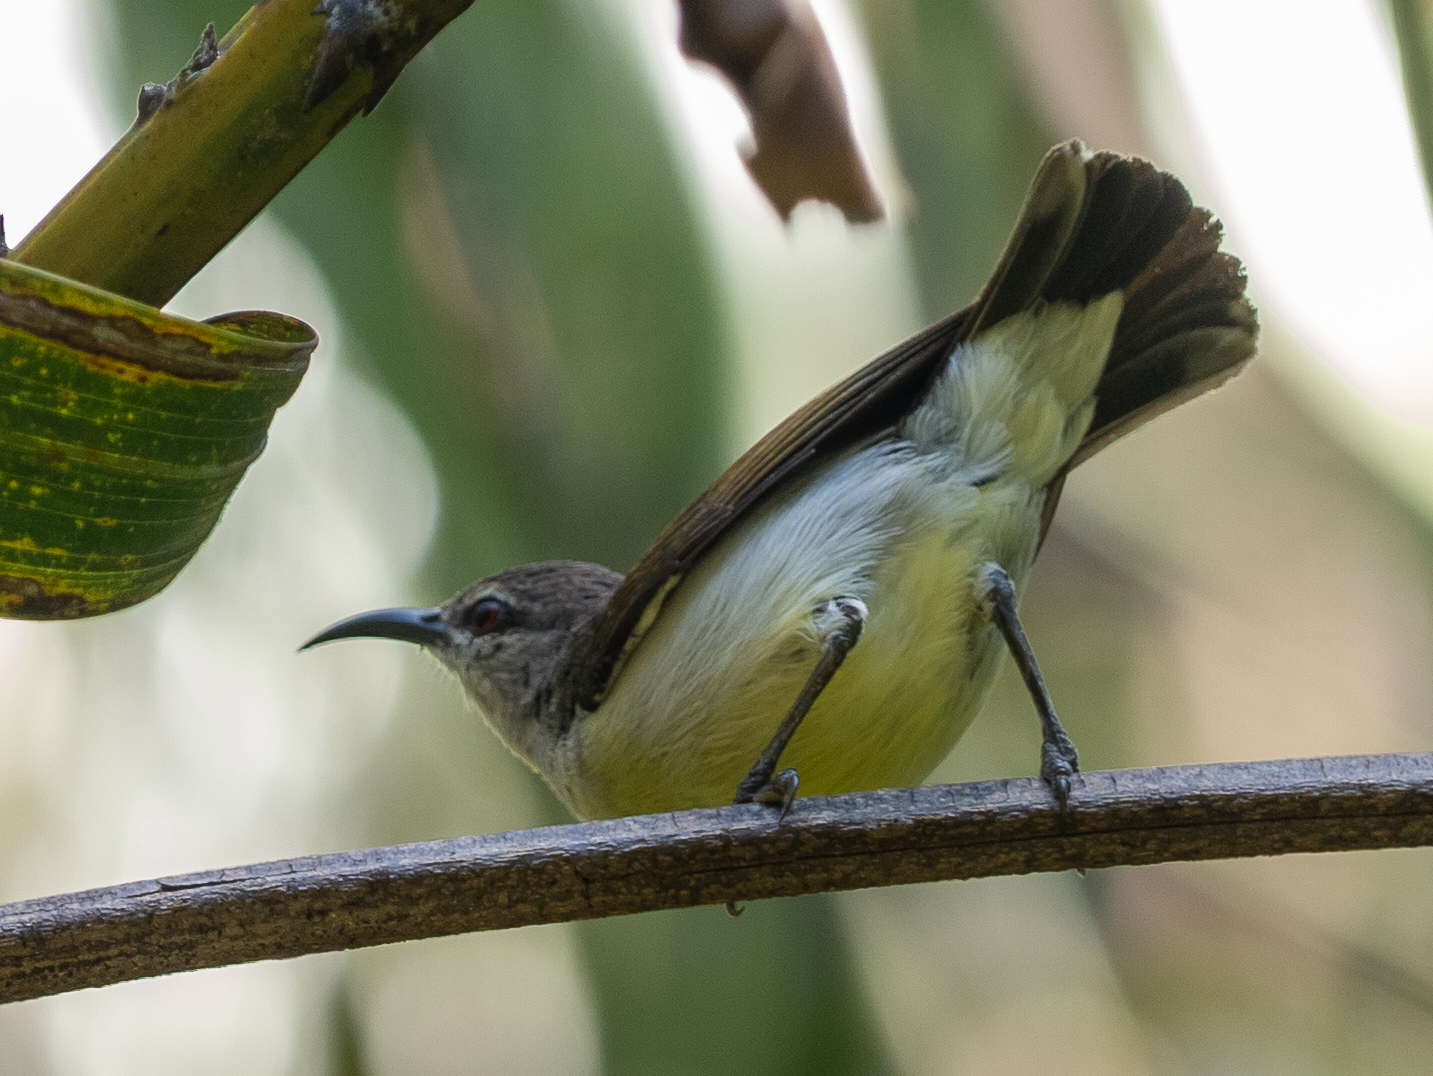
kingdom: Animalia
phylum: Chordata
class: Aves
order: Passeriformes
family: Nectariniidae
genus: Leptocoma
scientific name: Leptocoma zeylonica
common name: Purple-rumped sunbird
